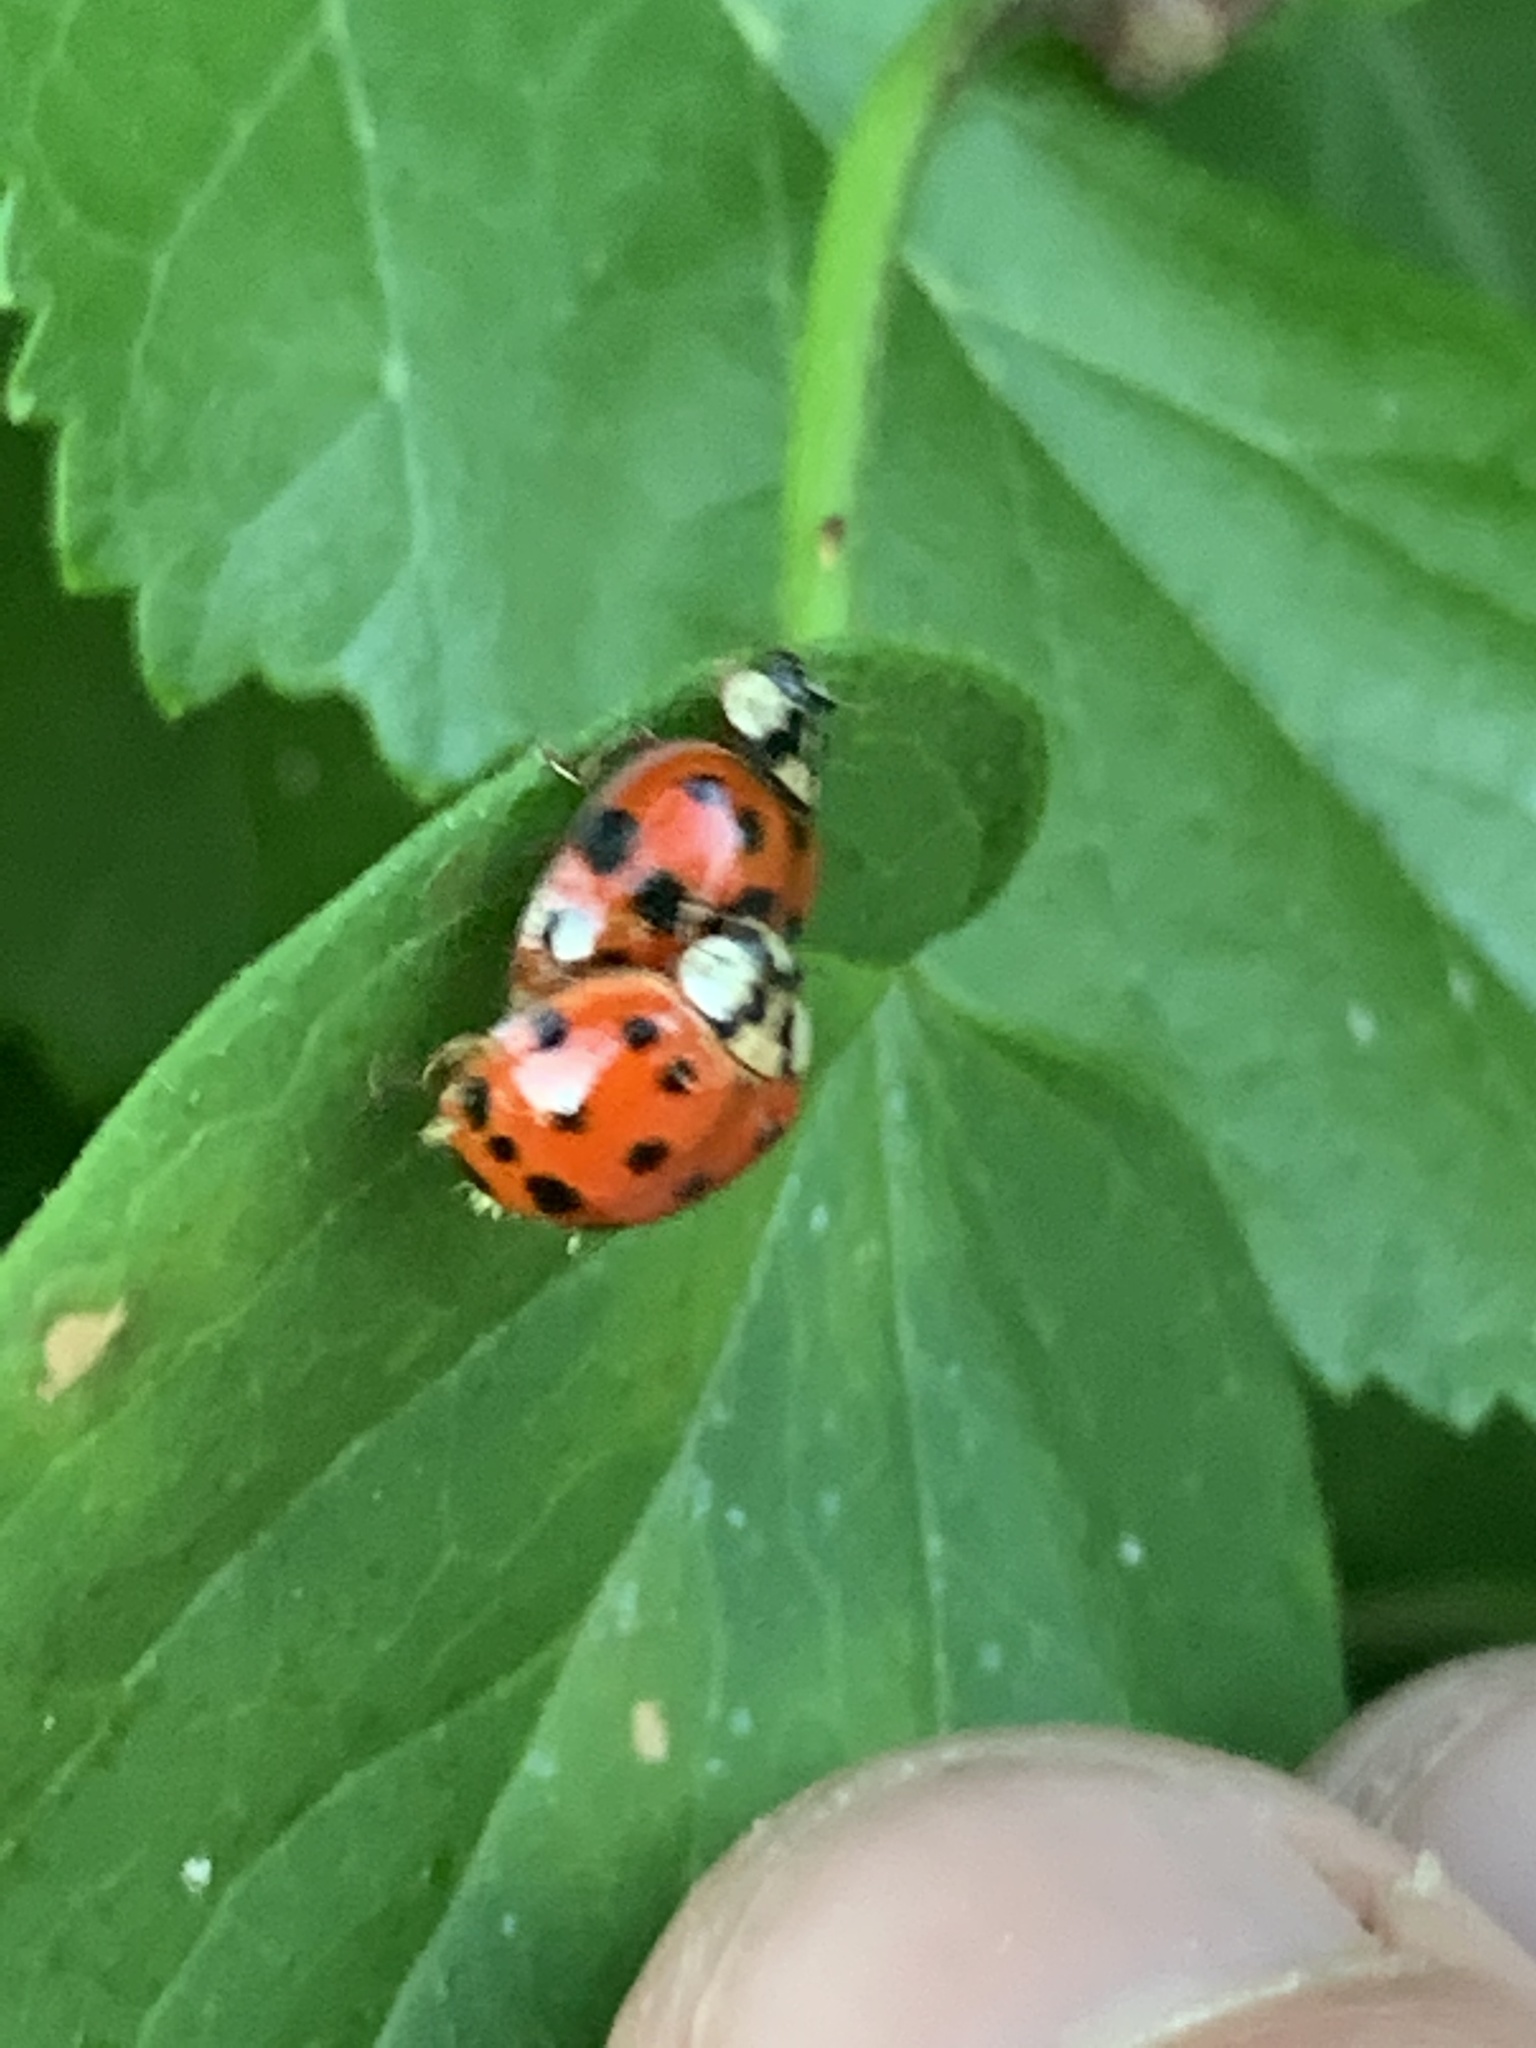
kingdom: Animalia
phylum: Arthropoda
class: Insecta
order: Coleoptera
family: Coccinellidae
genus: Harmonia
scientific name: Harmonia axyridis
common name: Harlequin ladybird
